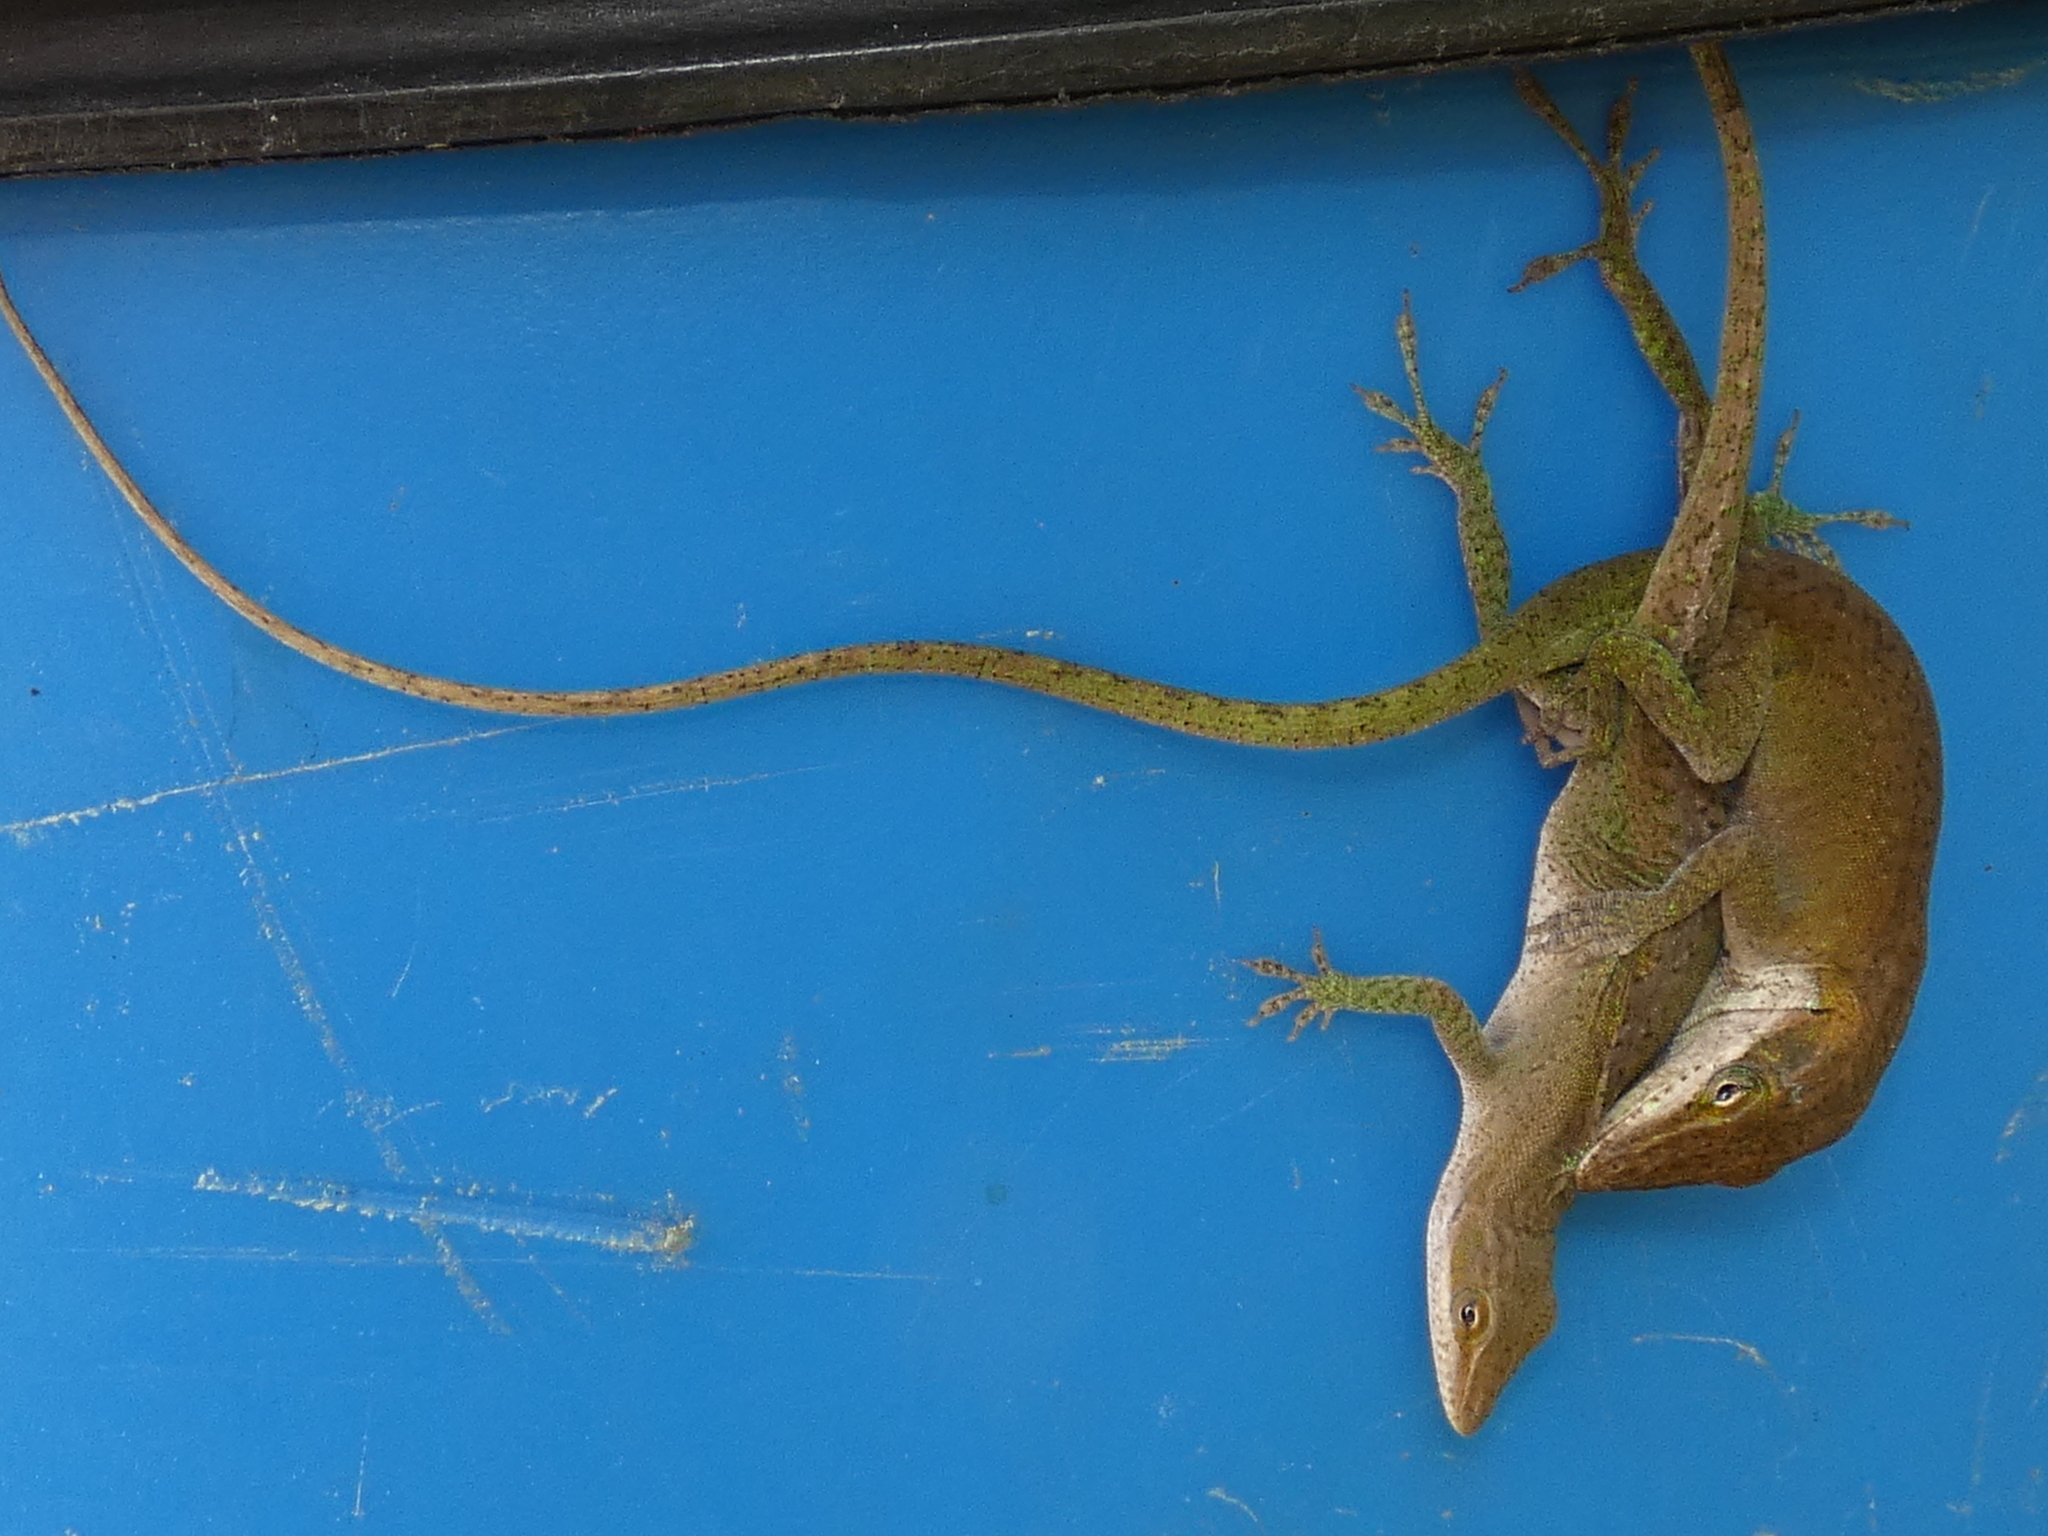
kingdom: Animalia
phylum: Chordata
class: Squamata
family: Dactyloidae
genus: Anolis
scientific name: Anolis carolinensis
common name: Green anole
